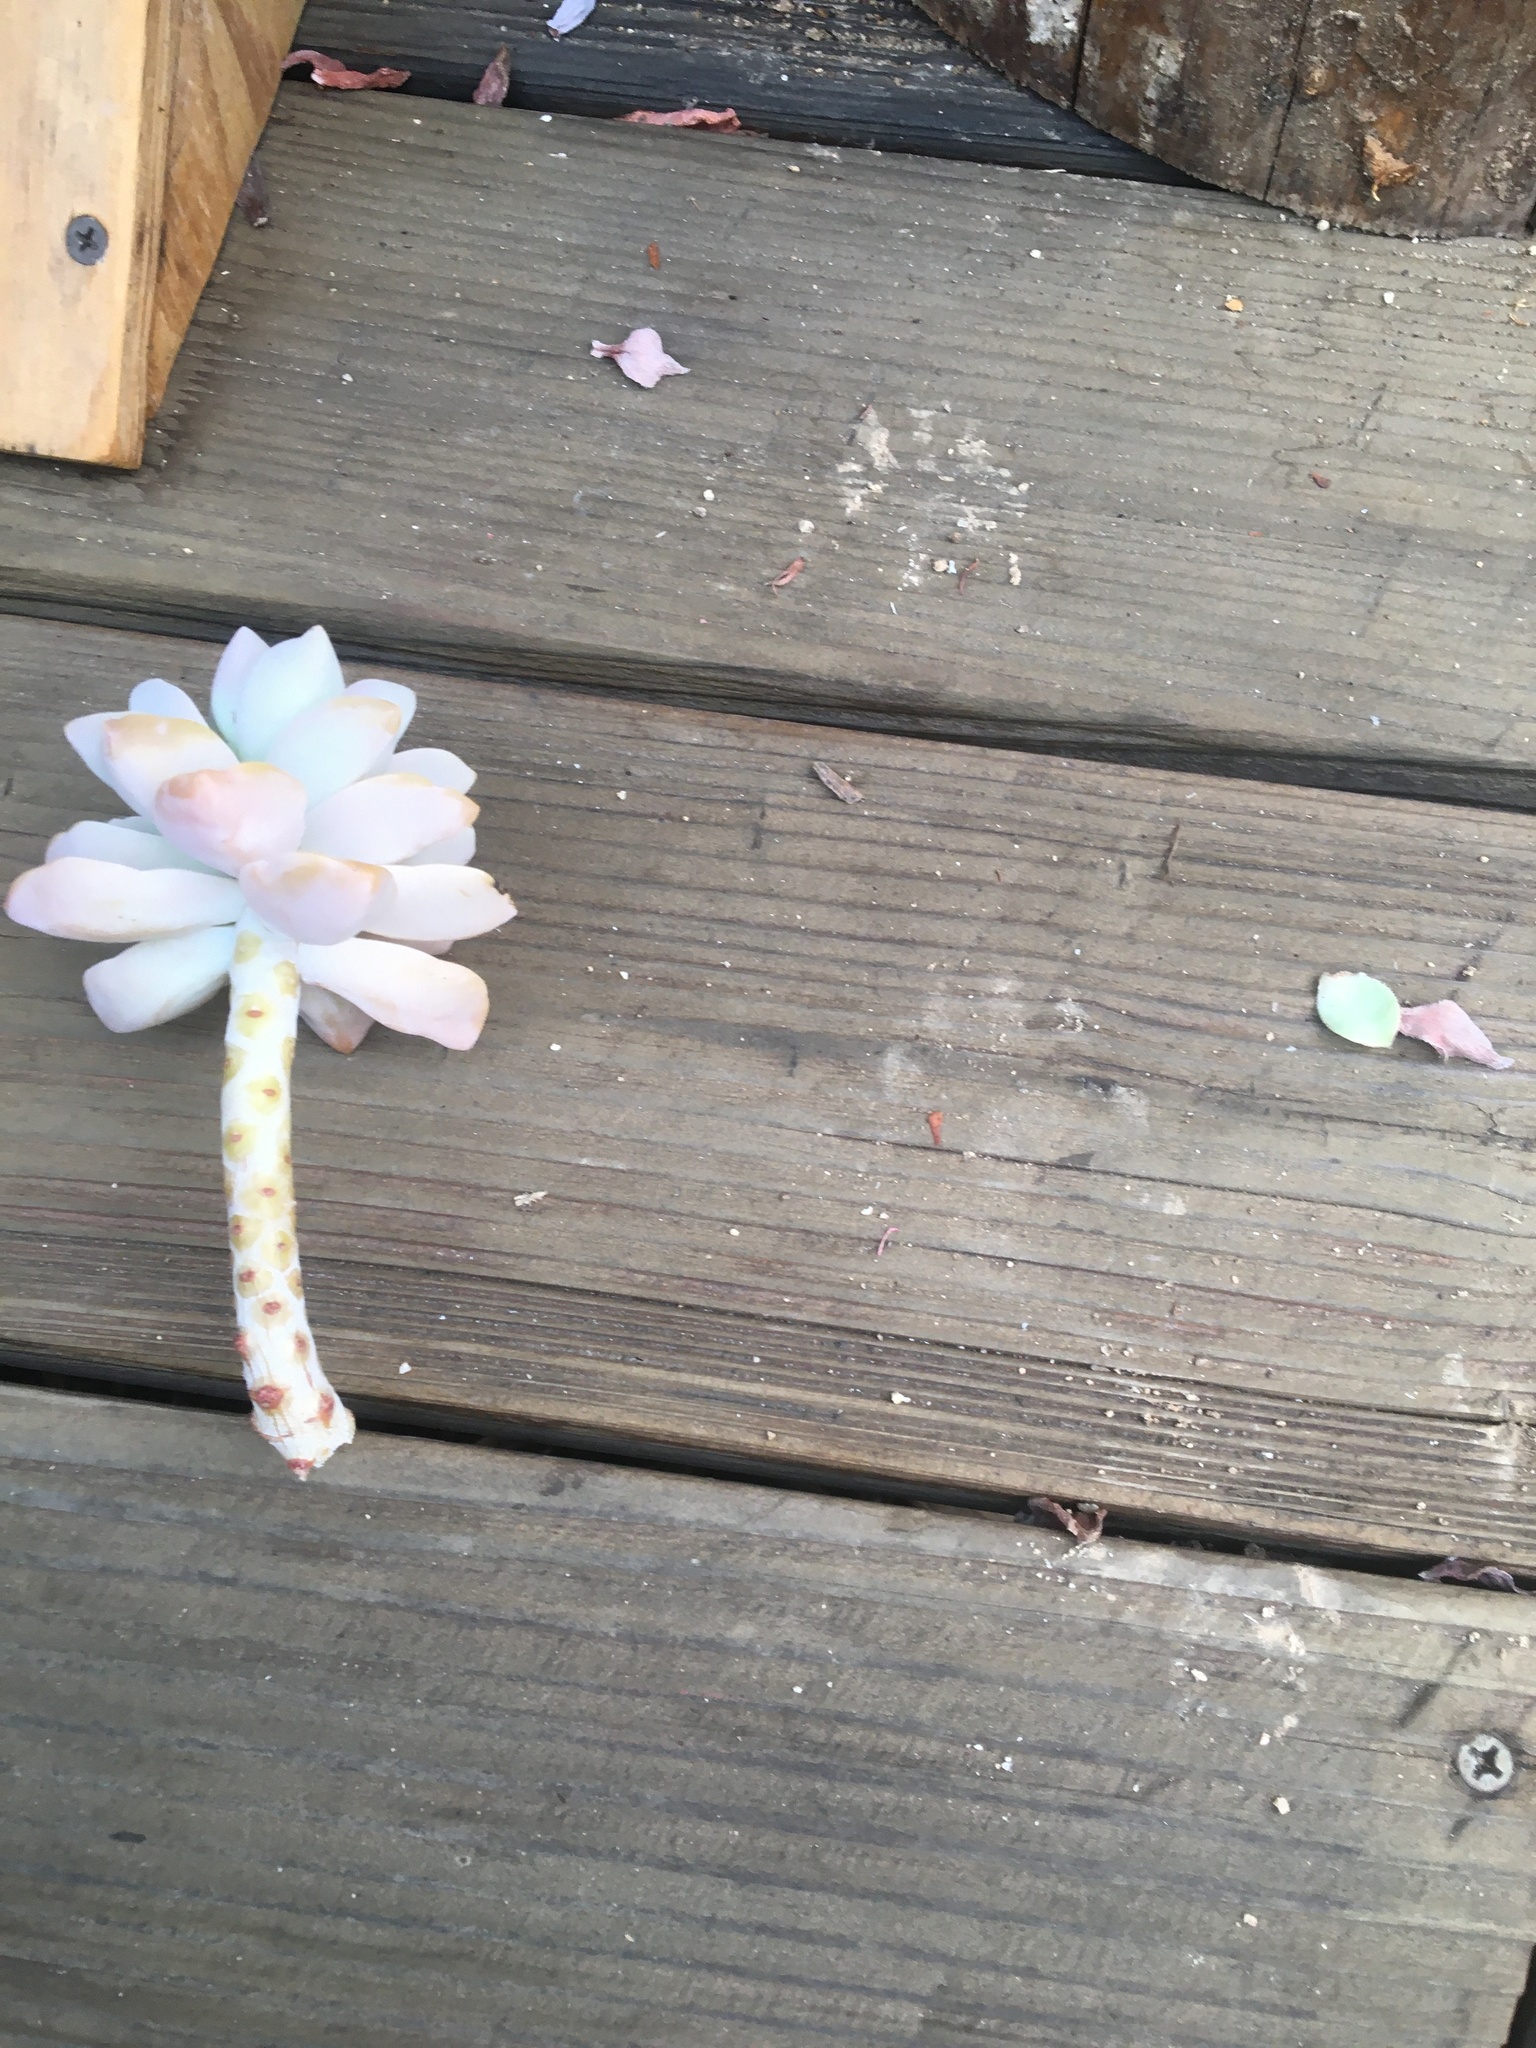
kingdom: Animalia
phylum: Chordata
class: Mammalia
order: Carnivora
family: Procyonidae
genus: Procyon
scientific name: Procyon lotor
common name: Raccoon
